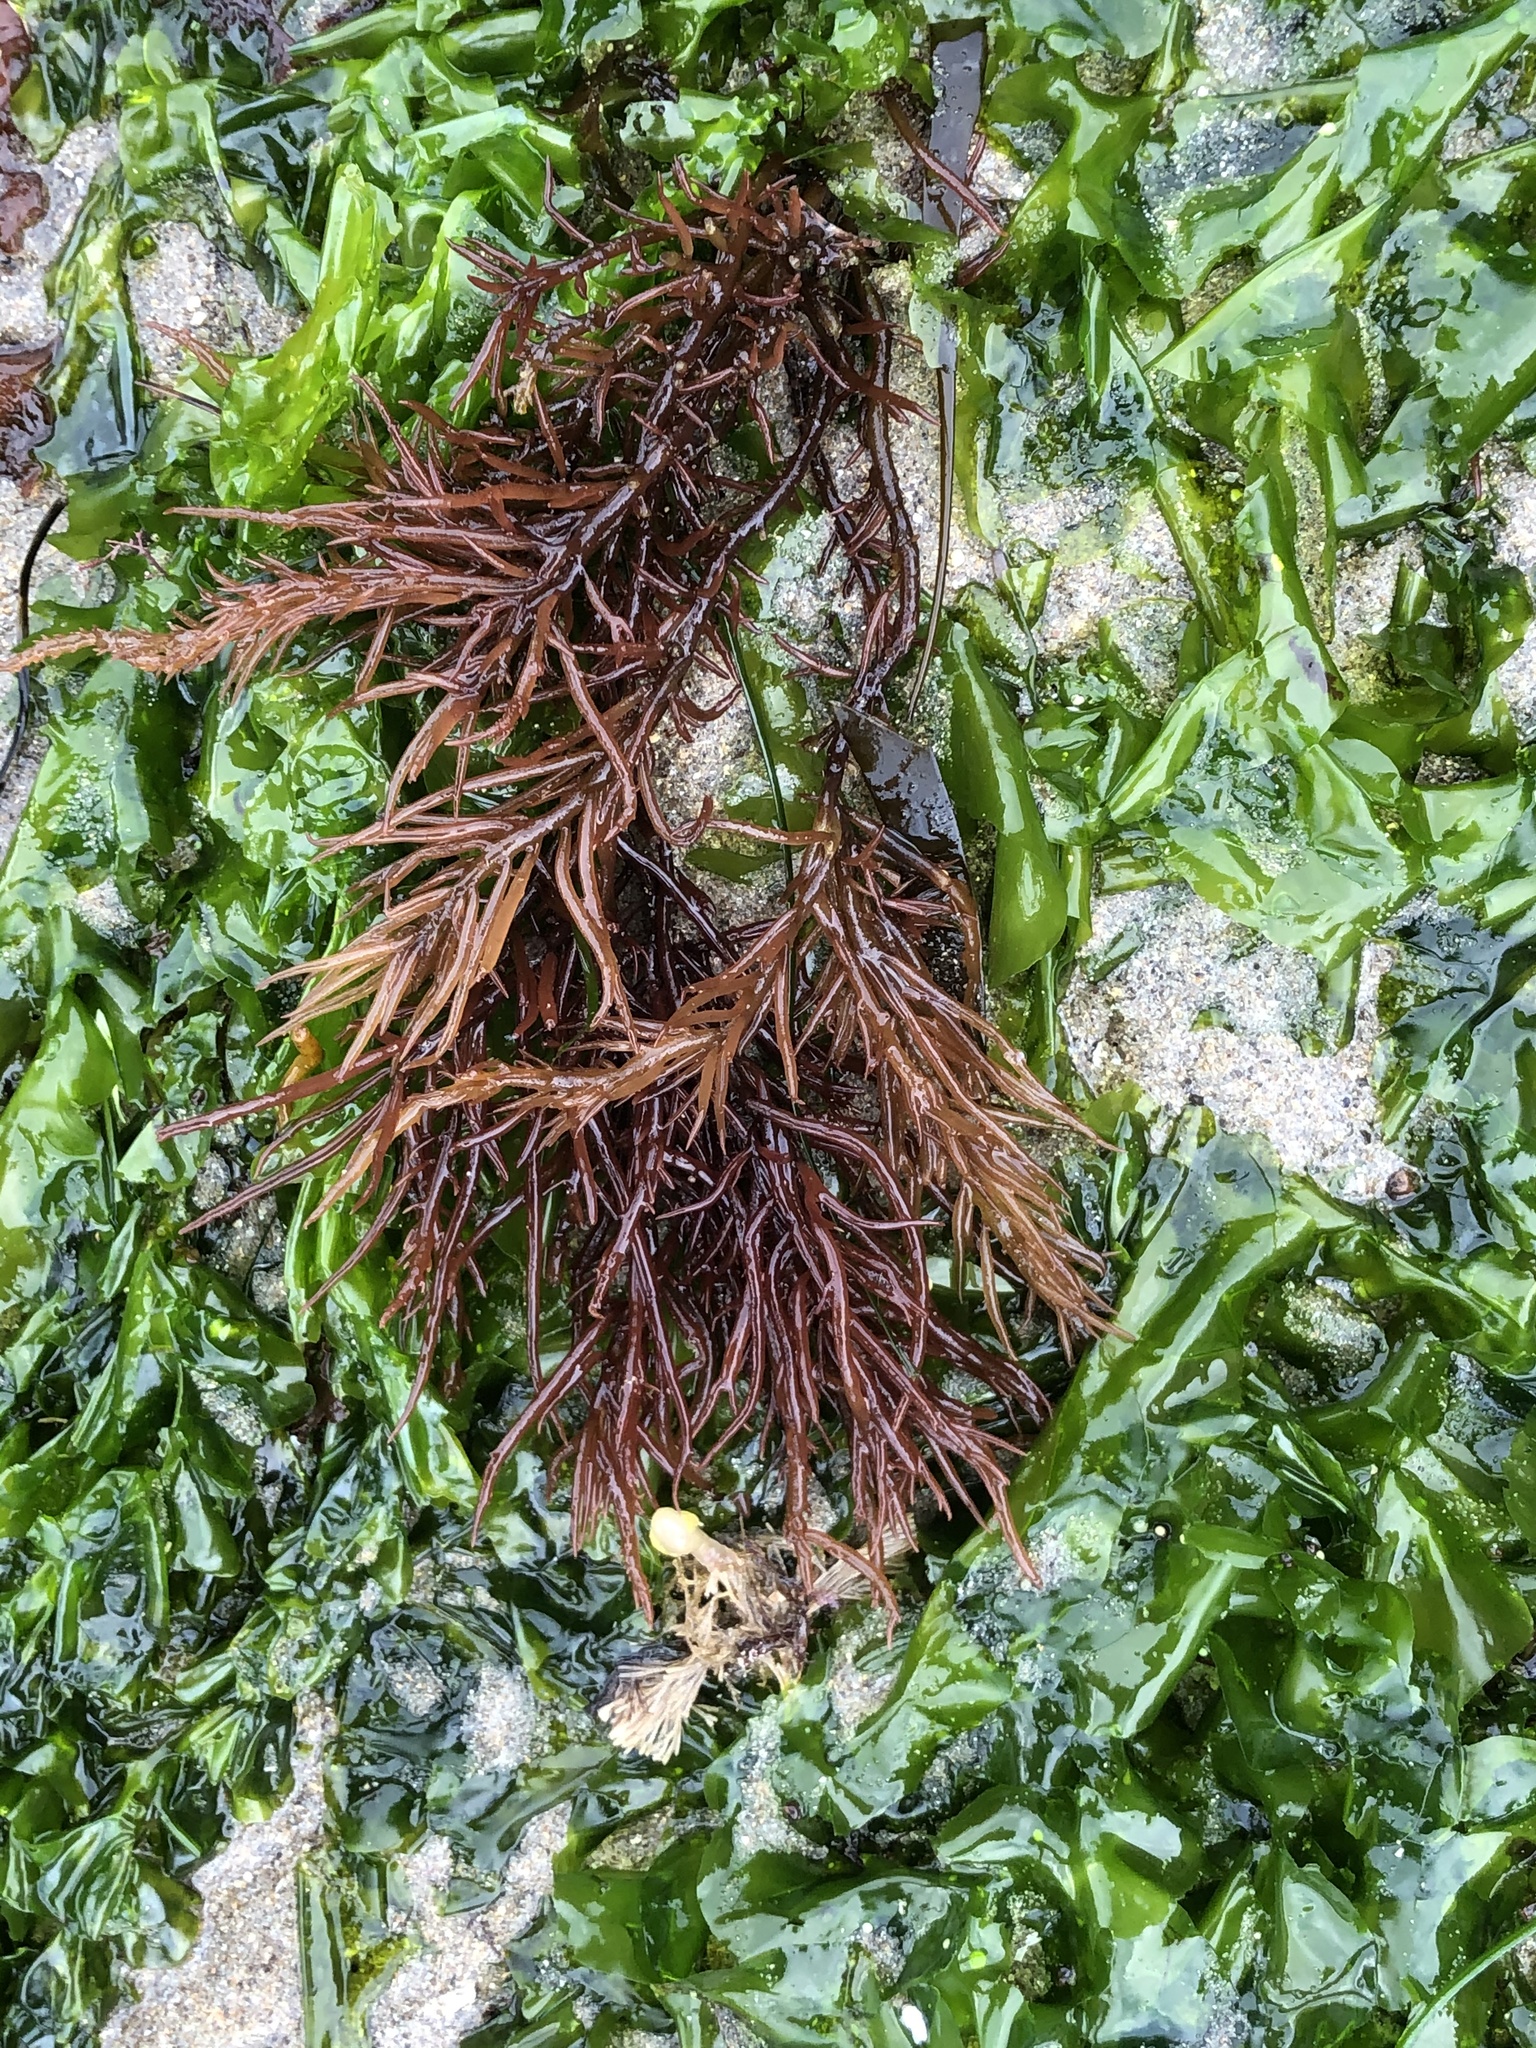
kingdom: Plantae
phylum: Rhodophyta
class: Florideophyceae
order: Gigartinales
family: Solieriaceae
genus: Sarcodiotheca
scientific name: Sarcodiotheca gaudichaudii
